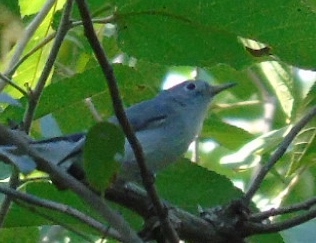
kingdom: Animalia
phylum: Chordata
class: Aves
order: Passeriformes
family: Polioptilidae
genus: Polioptila
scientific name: Polioptila caerulea
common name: Blue-gray gnatcatcher
